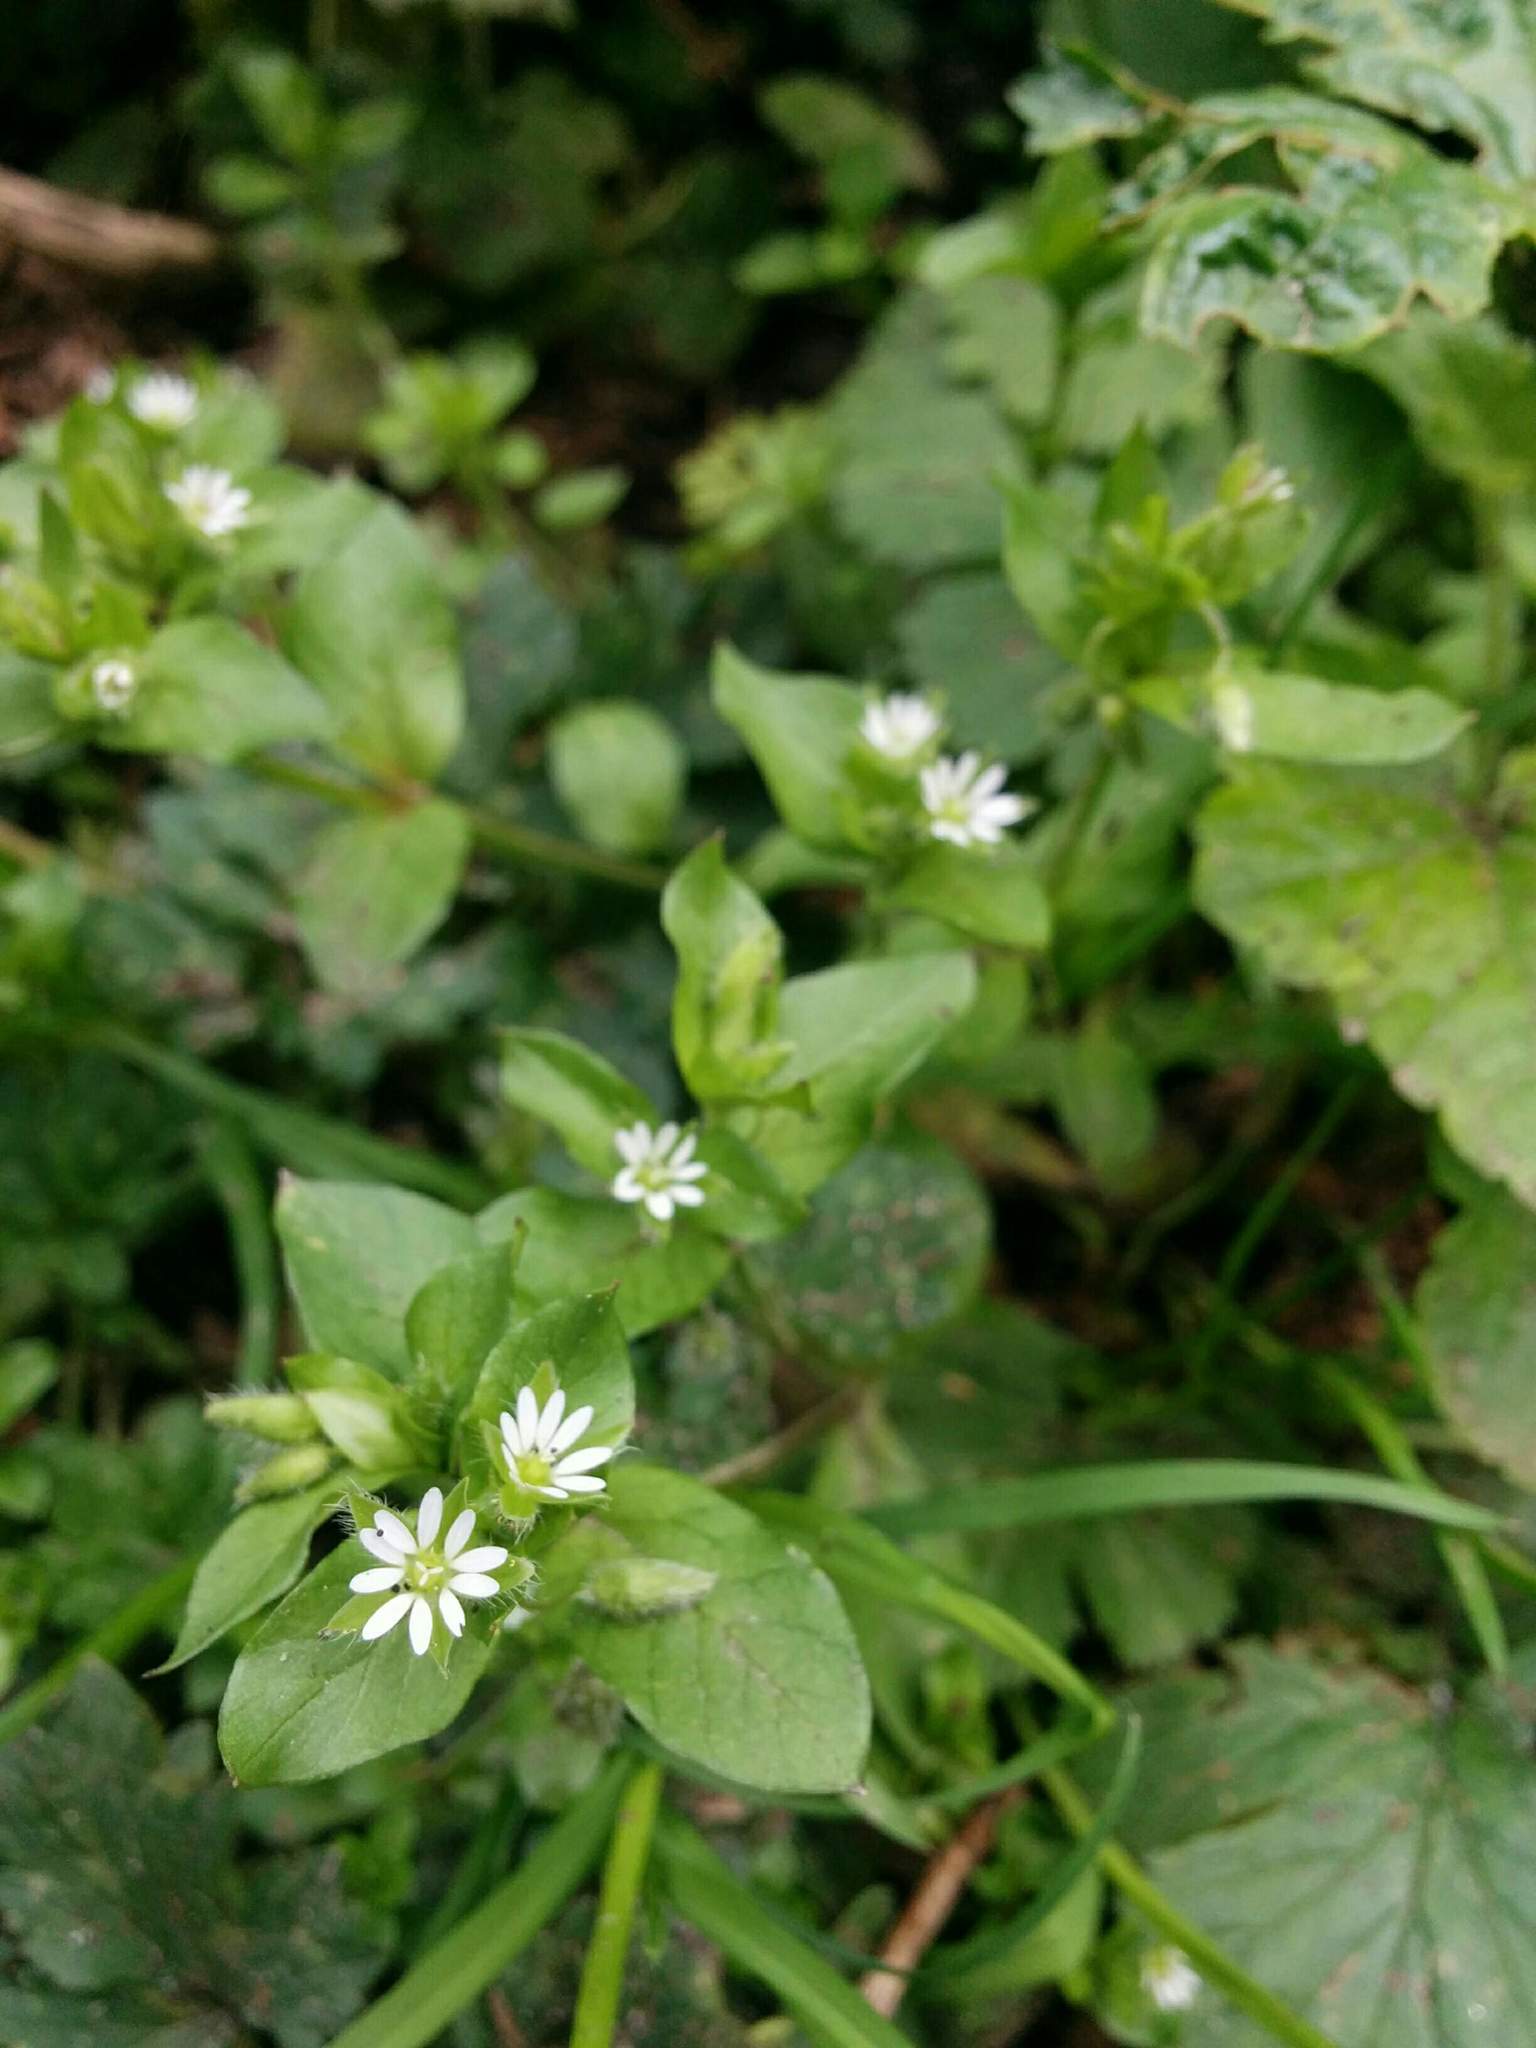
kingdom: Plantae
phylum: Tracheophyta
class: Magnoliopsida
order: Caryophyllales
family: Caryophyllaceae
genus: Stellaria
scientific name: Stellaria media
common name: Common chickweed
